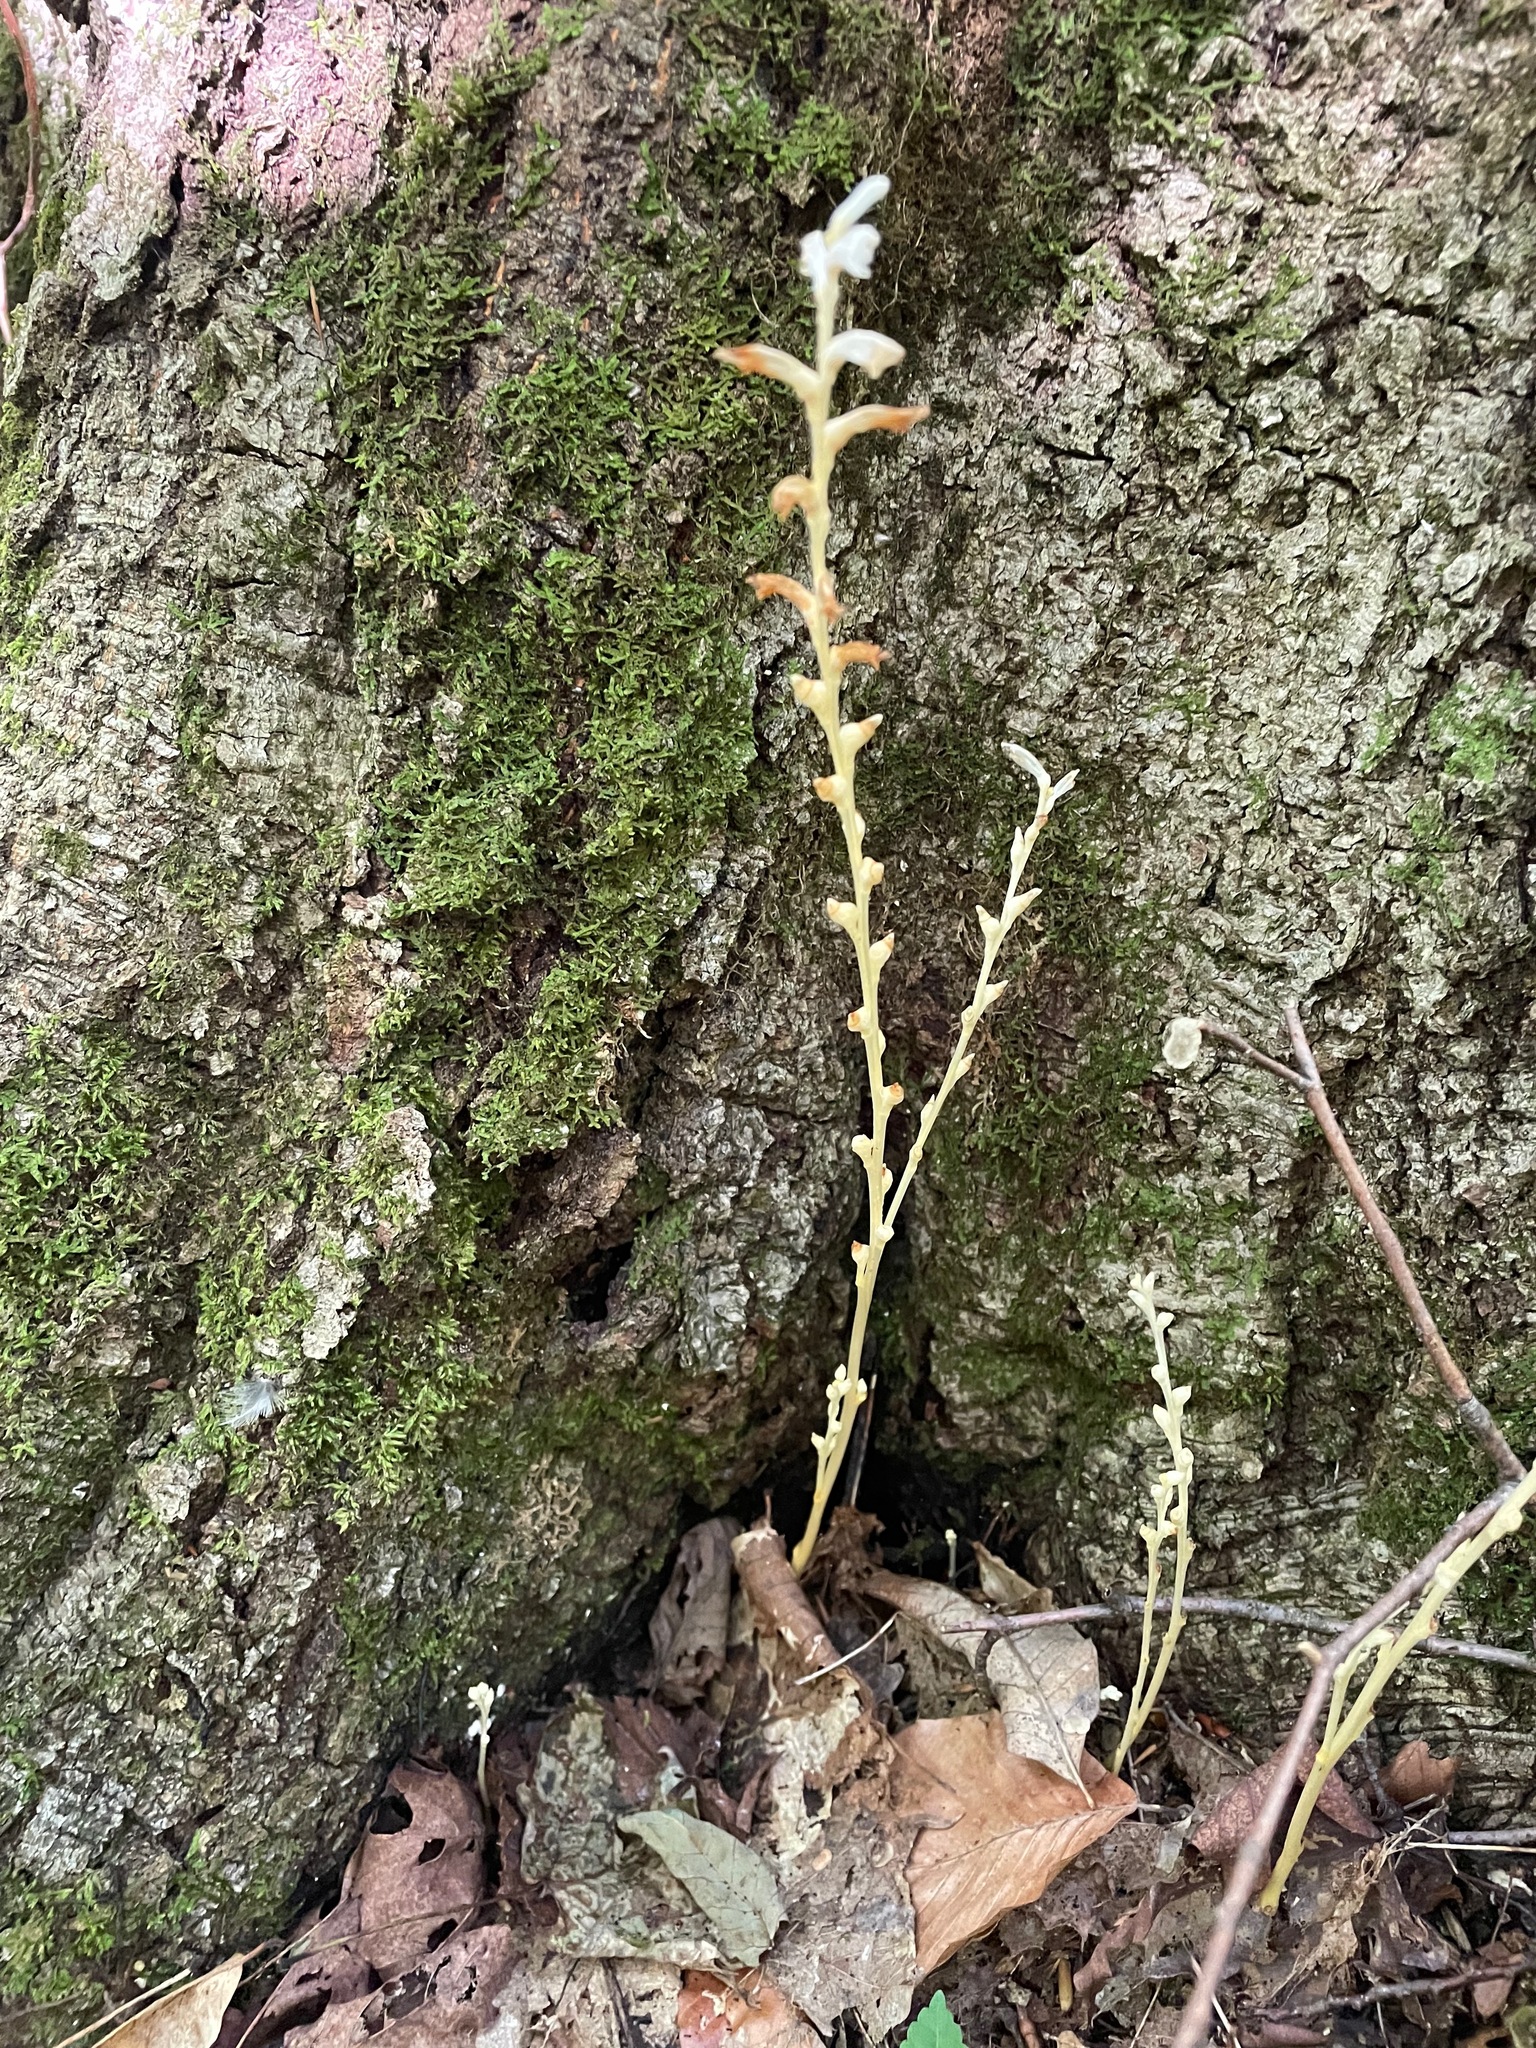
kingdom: Plantae
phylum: Tracheophyta
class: Magnoliopsida
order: Lamiales
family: Orobanchaceae
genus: Epifagus
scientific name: Epifagus virginiana
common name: Beechdrops
